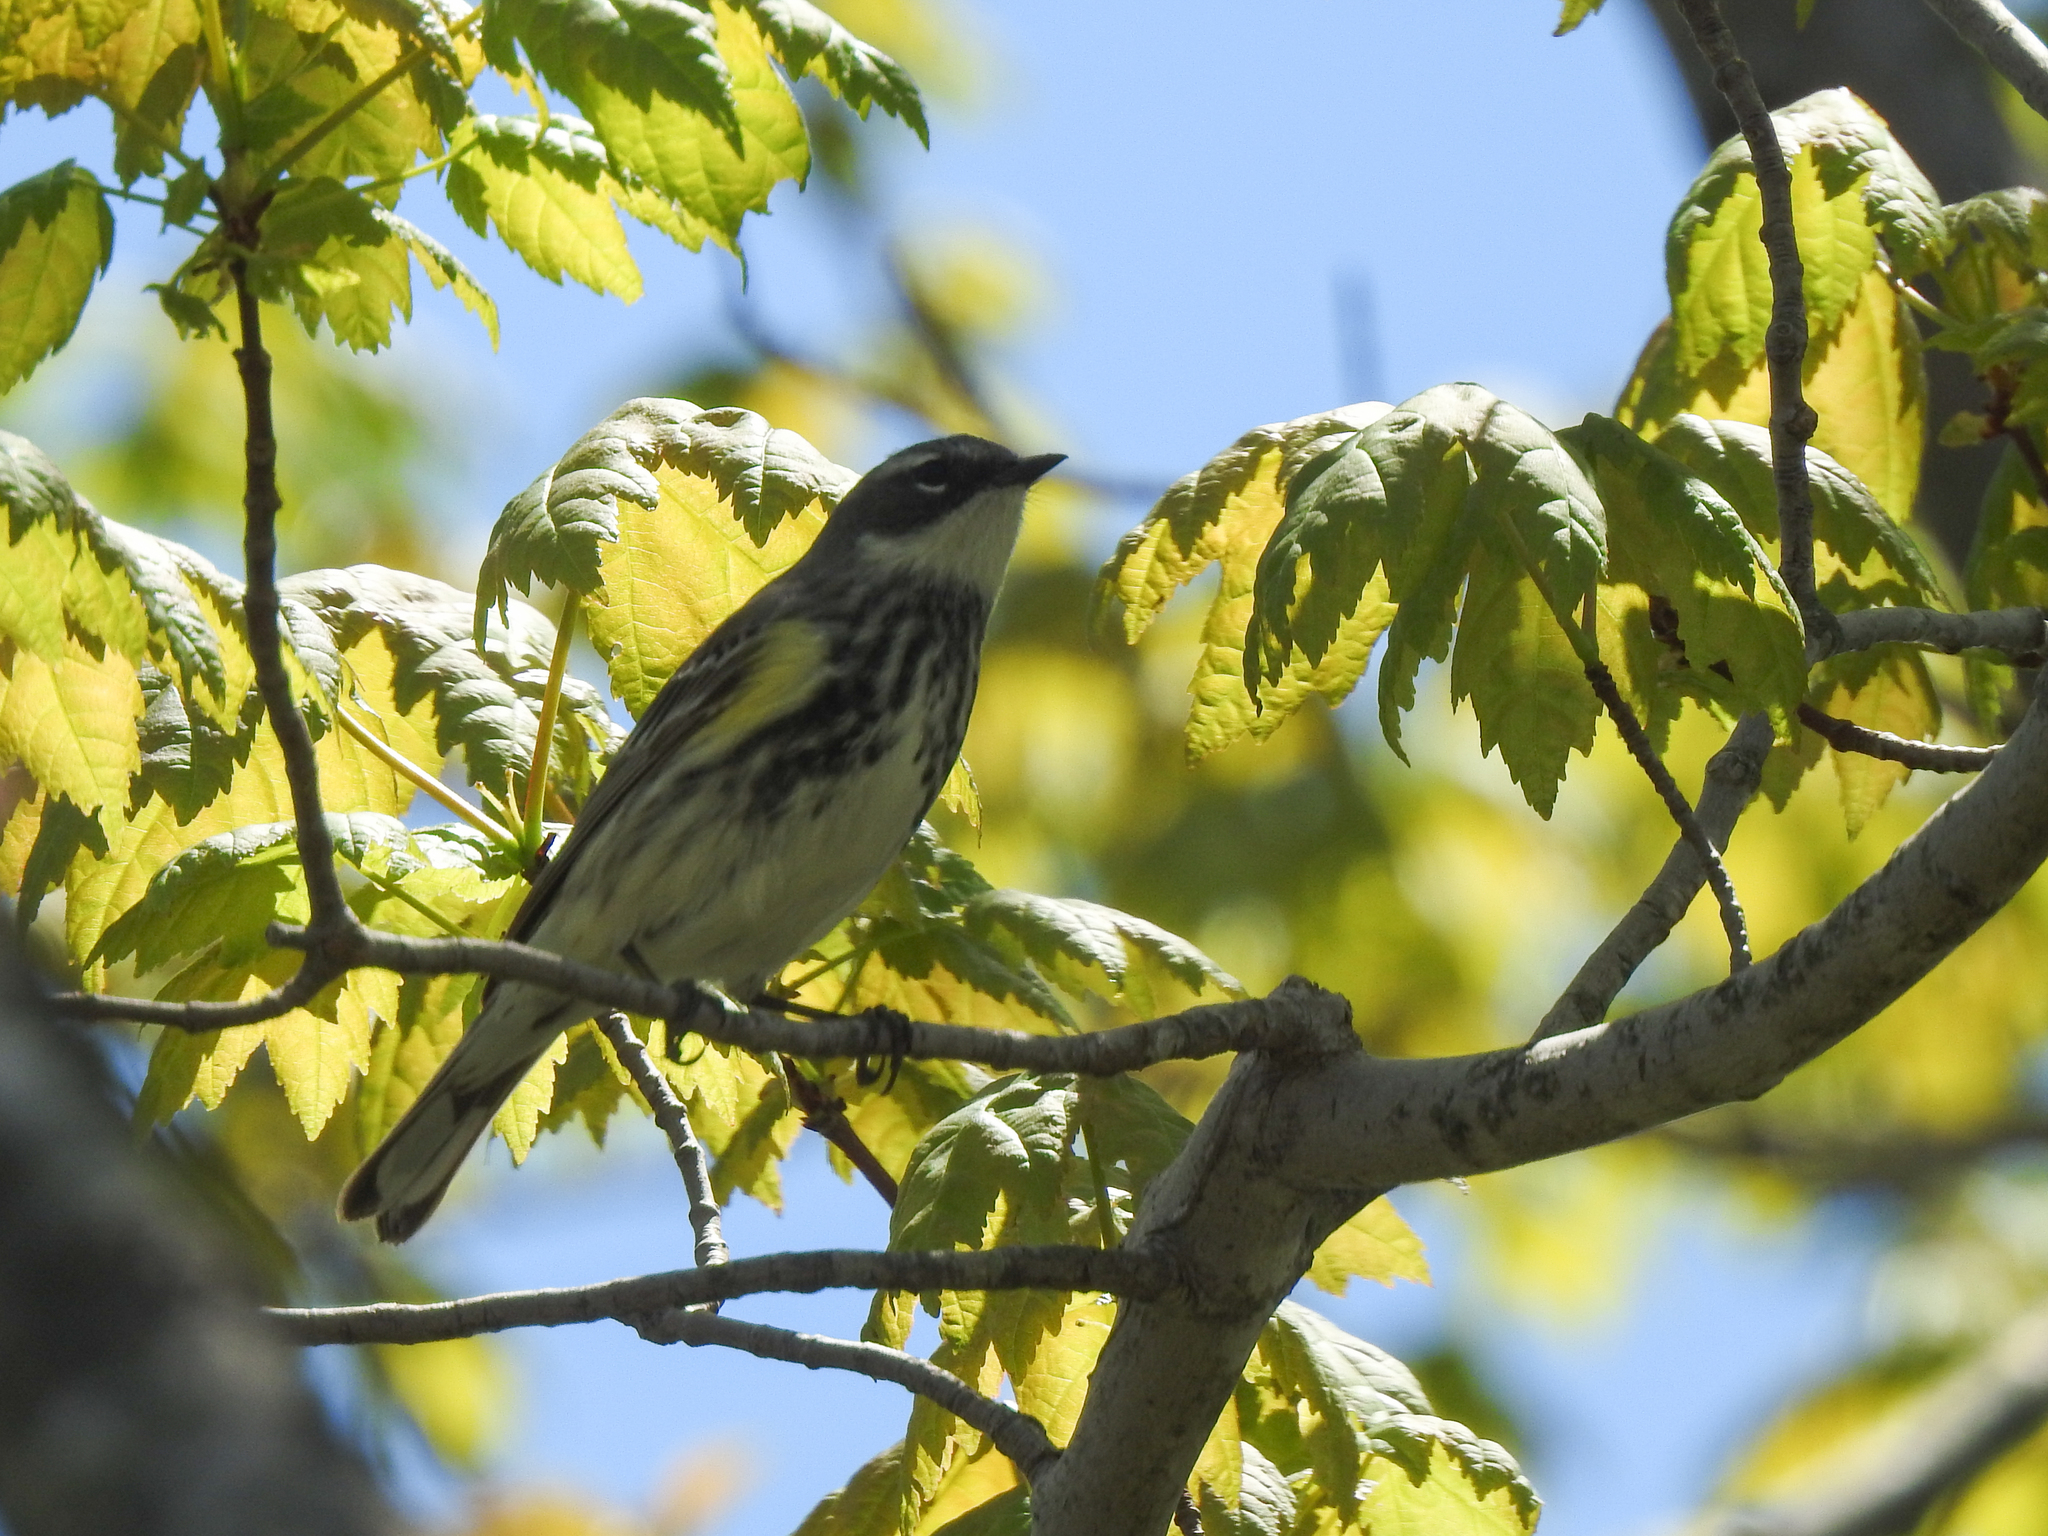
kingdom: Animalia
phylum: Chordata
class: Aves
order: Passeriformes
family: Parulidae
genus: Setophaga
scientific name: Setophaga coronata
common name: Myrtle warbler
